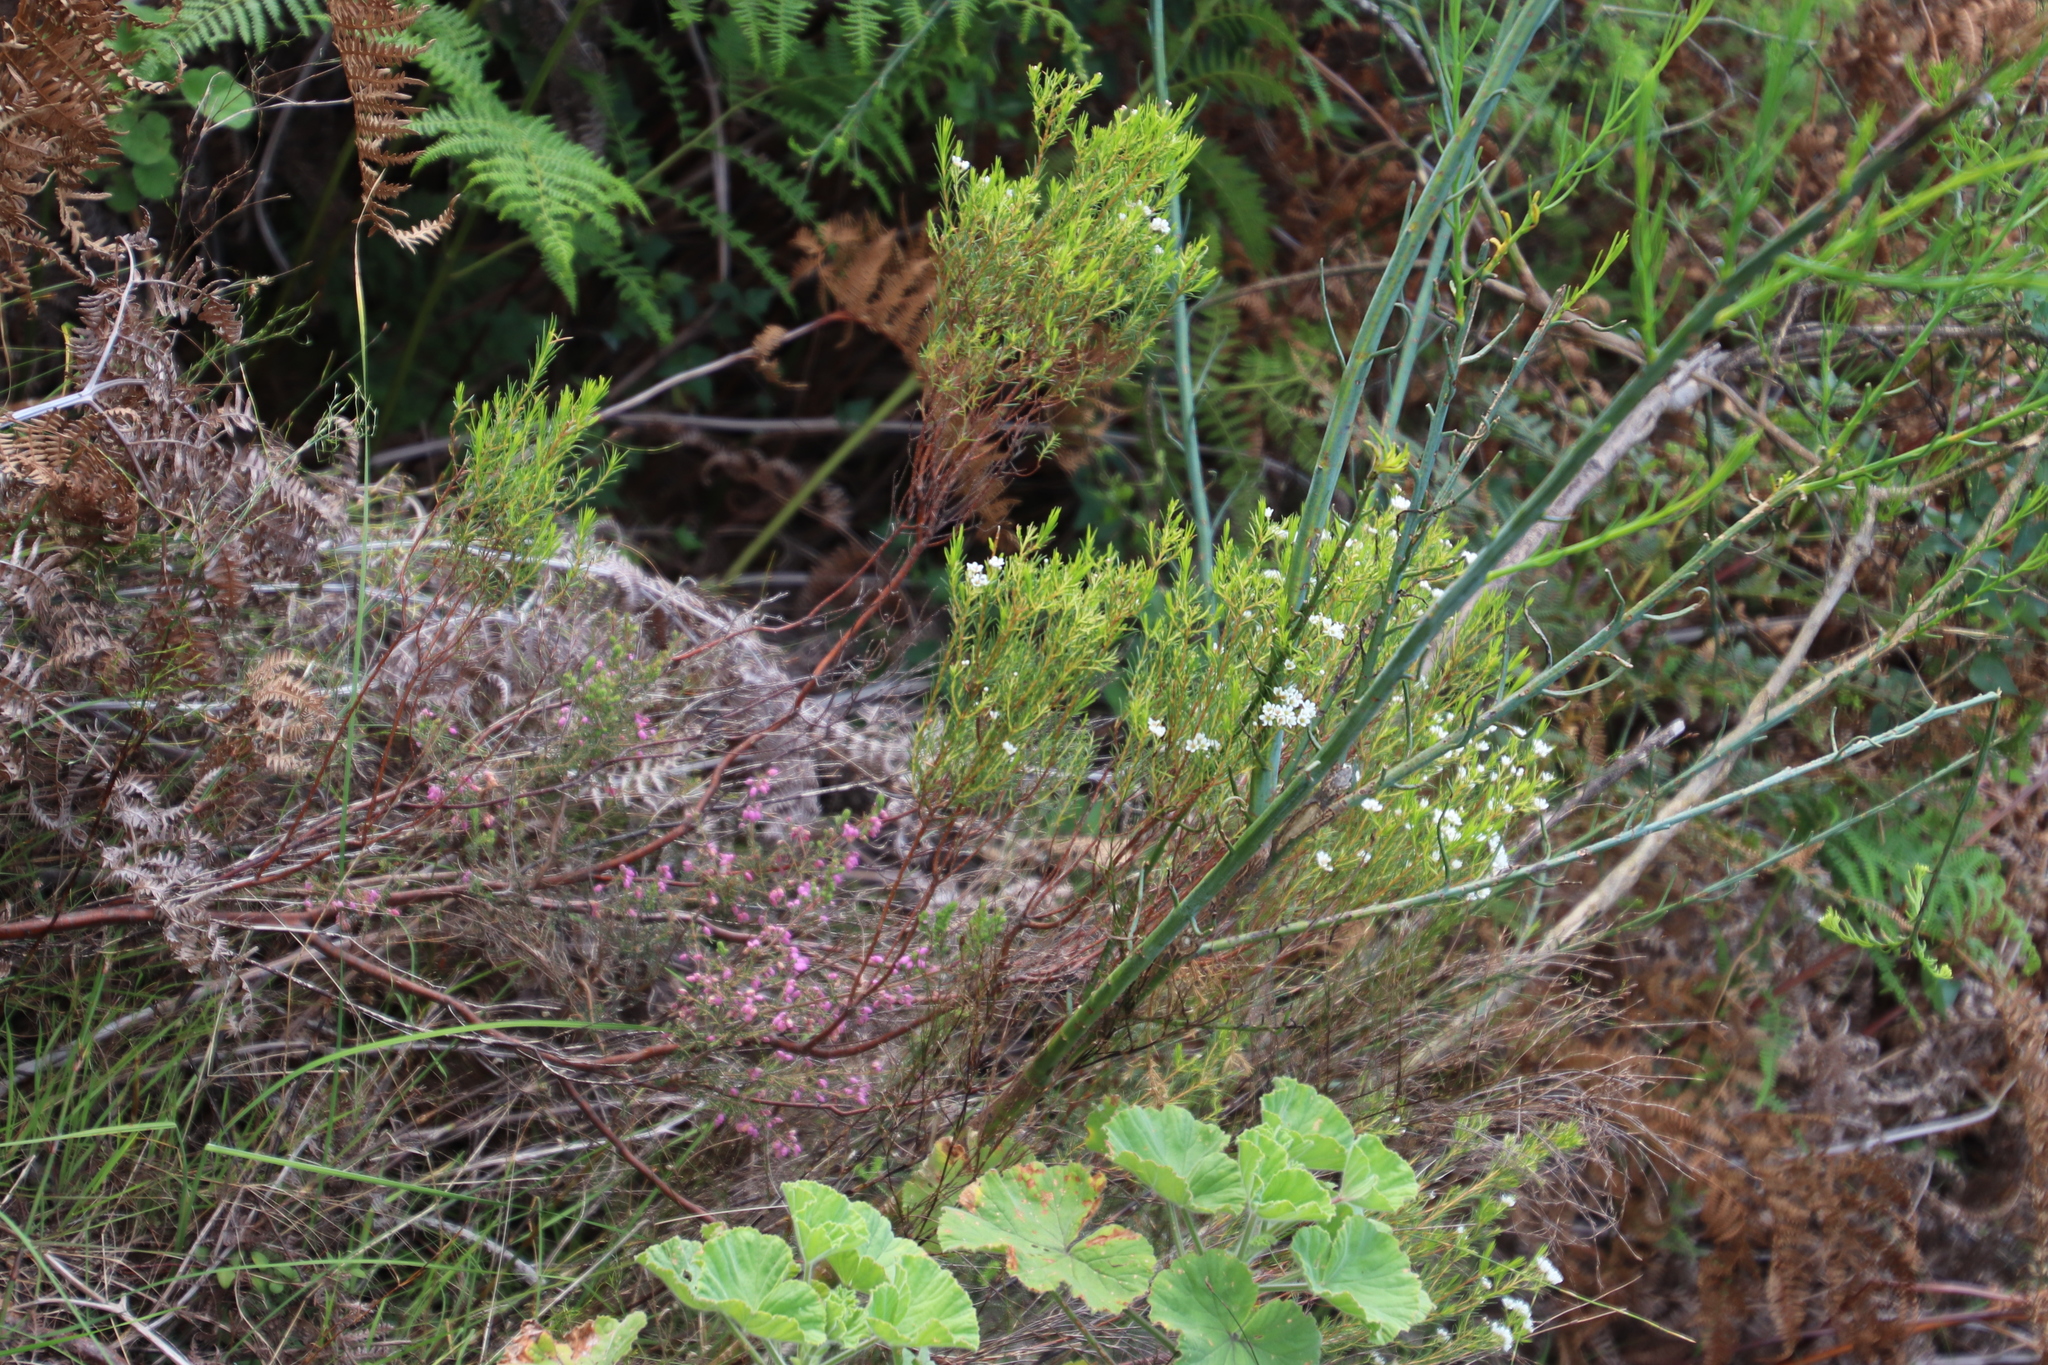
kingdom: Plantae
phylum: Tracheophyta
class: Magnoliopsida
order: Sapindales
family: Rutaceae
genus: Diosma
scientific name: Diosma hirsuta
